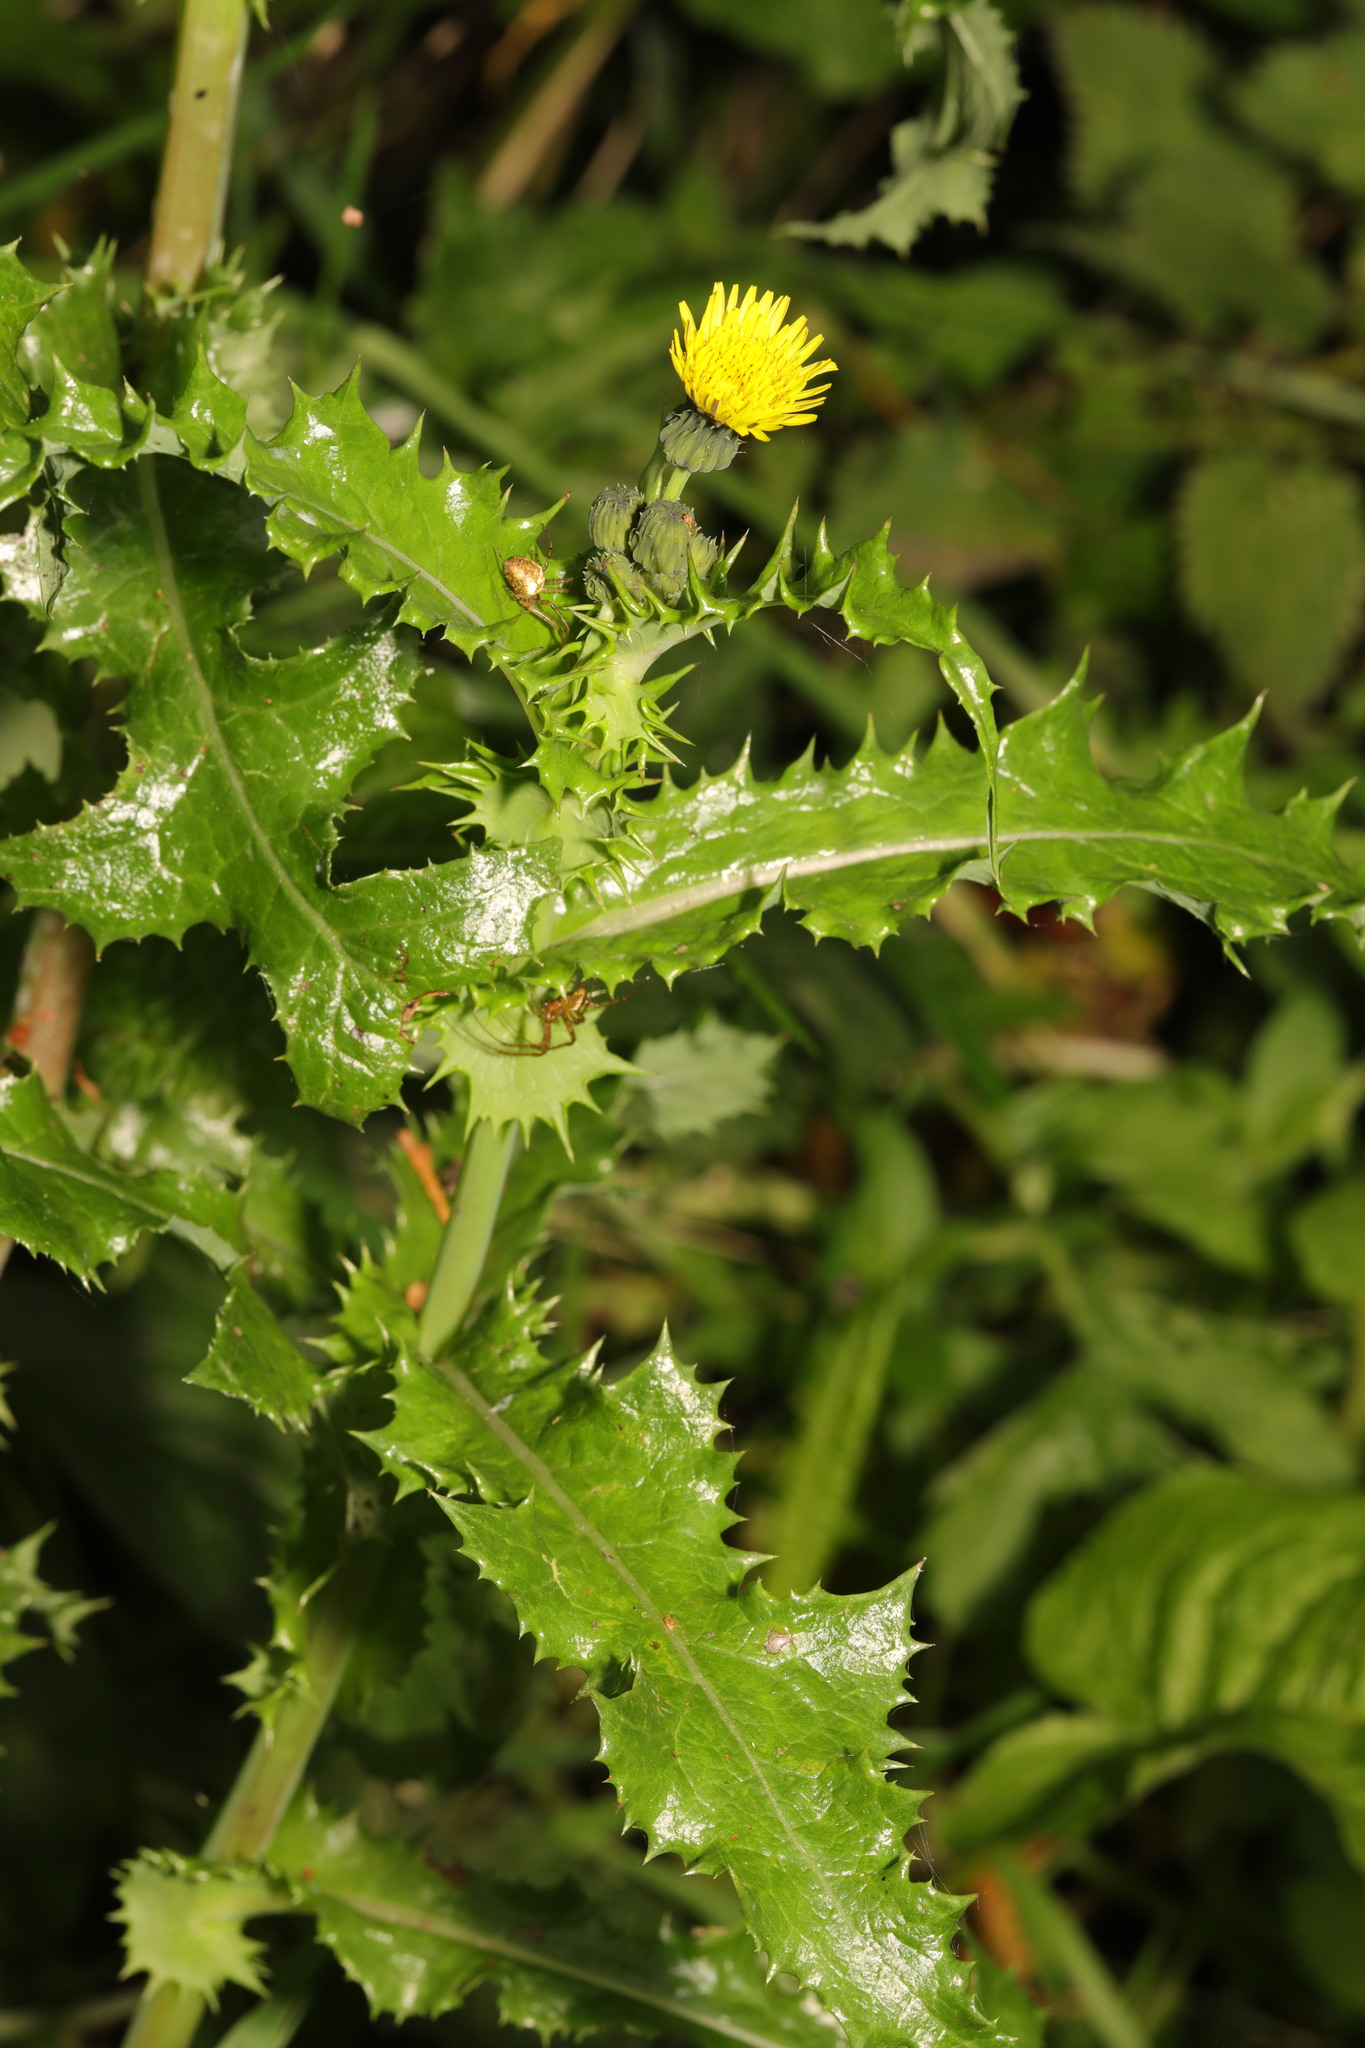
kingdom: Plantae
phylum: Tracheophyta
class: Magnoliopsida
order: Asterales
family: Asteraceae
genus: Sonchus
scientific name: Sonchus asper
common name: Prickly sow-thistle
